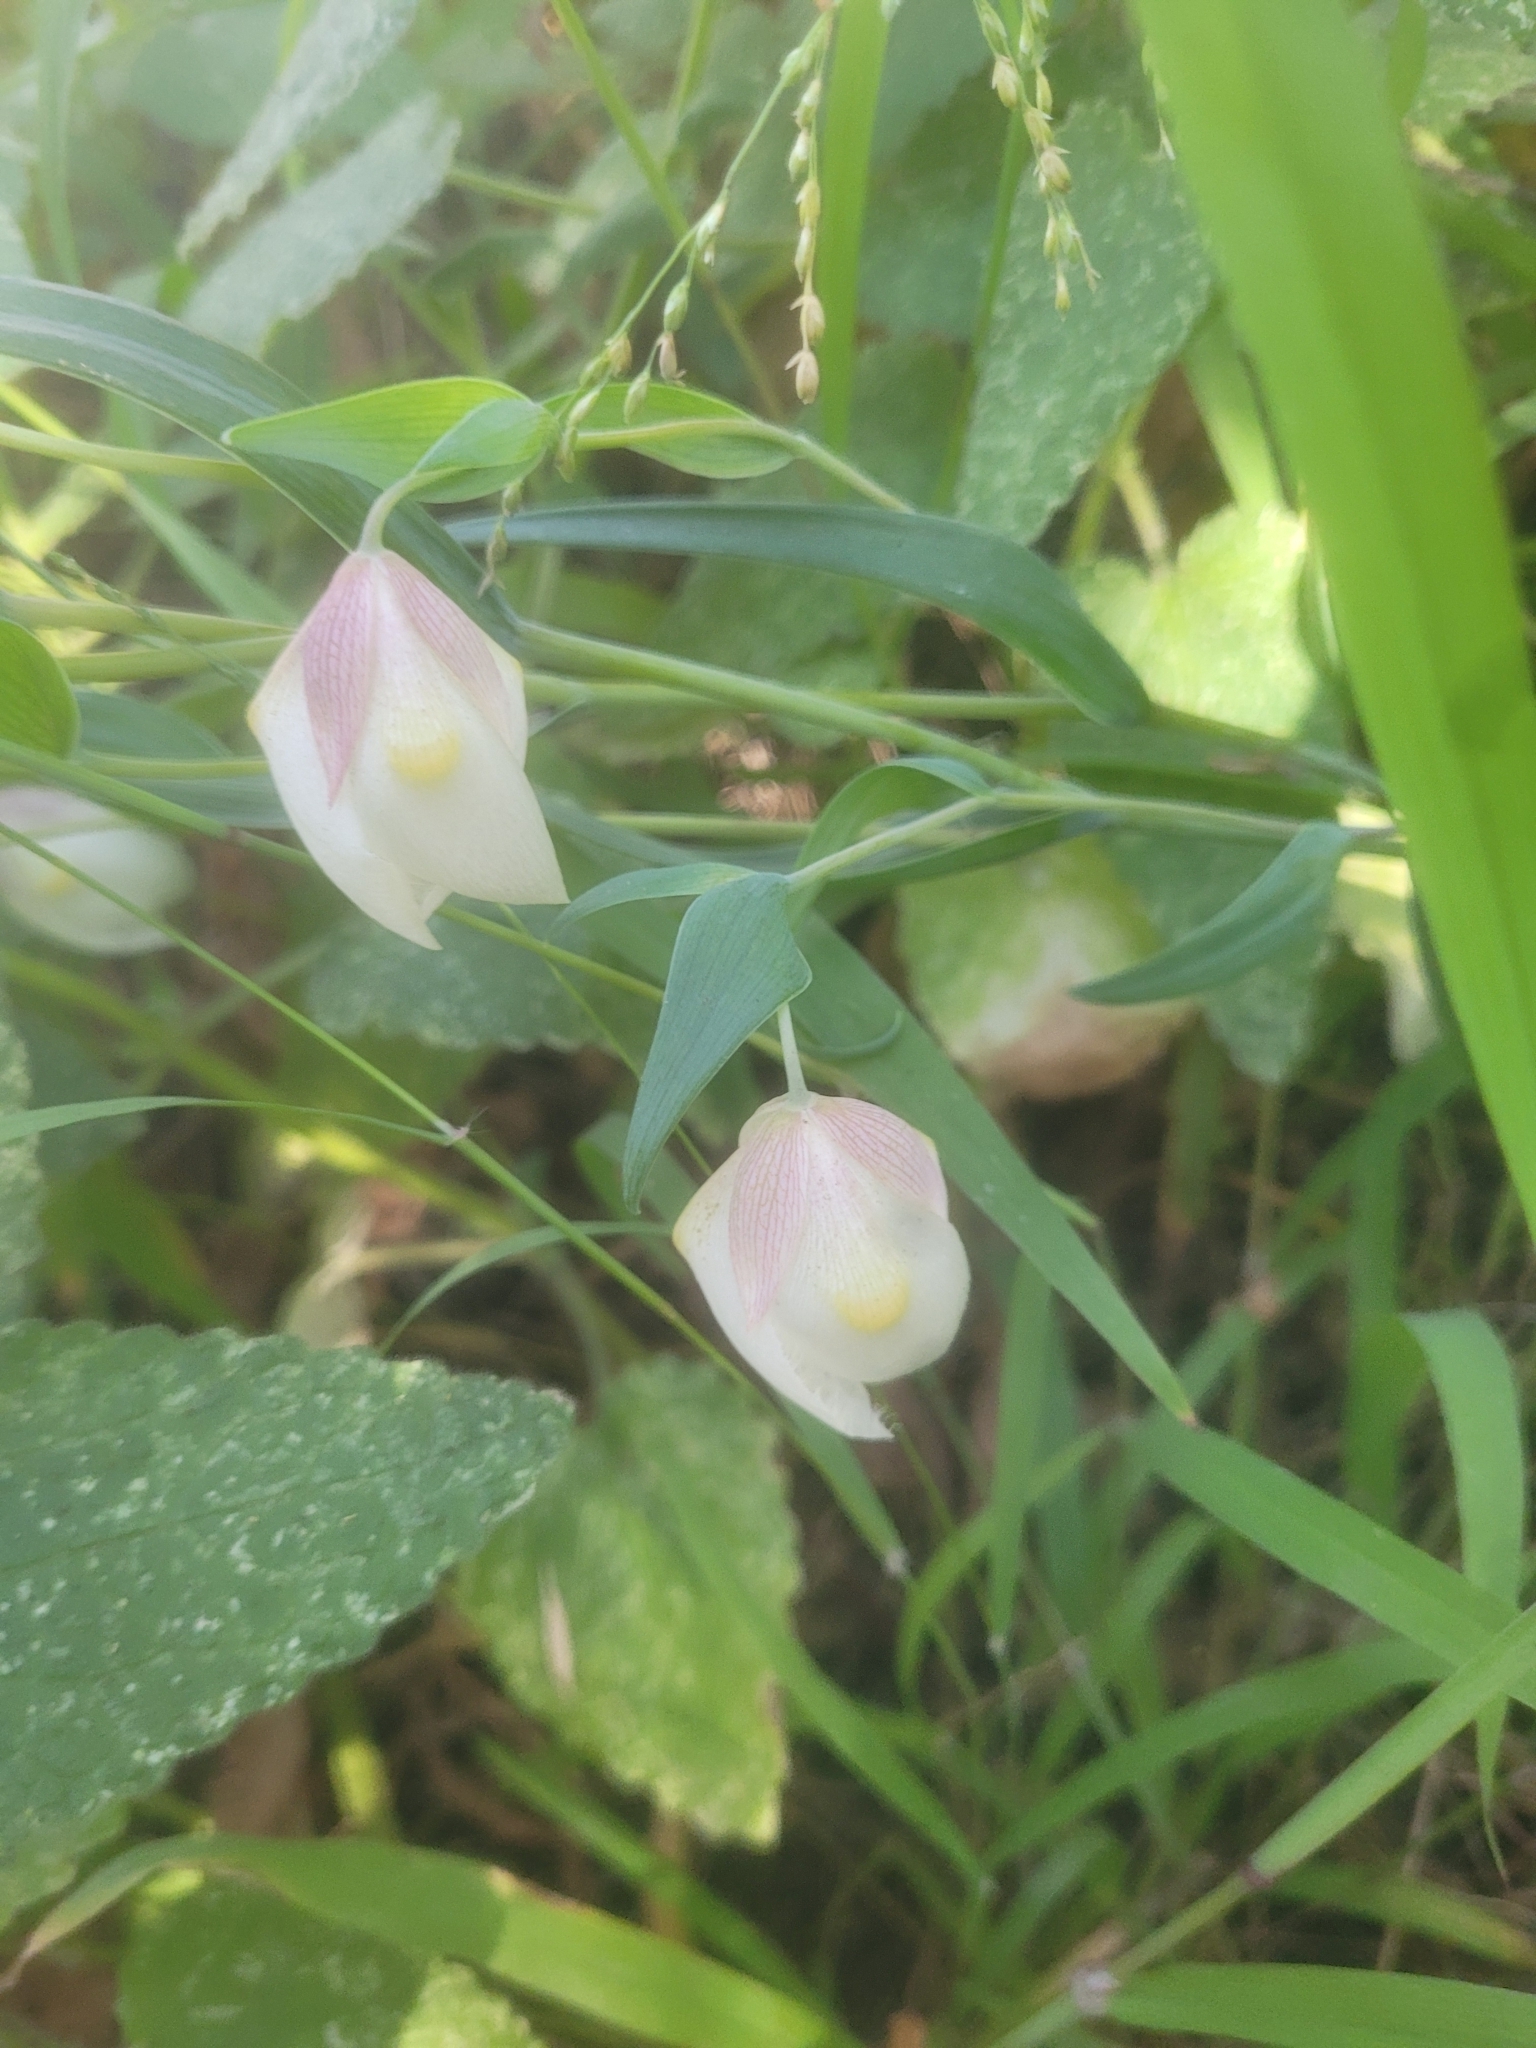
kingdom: Plantae
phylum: Tracheophyta
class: Liliopsida
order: Liliales
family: Liliaceae
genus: Calochortus
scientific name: Calochortus albus
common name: Fairy-lantern
